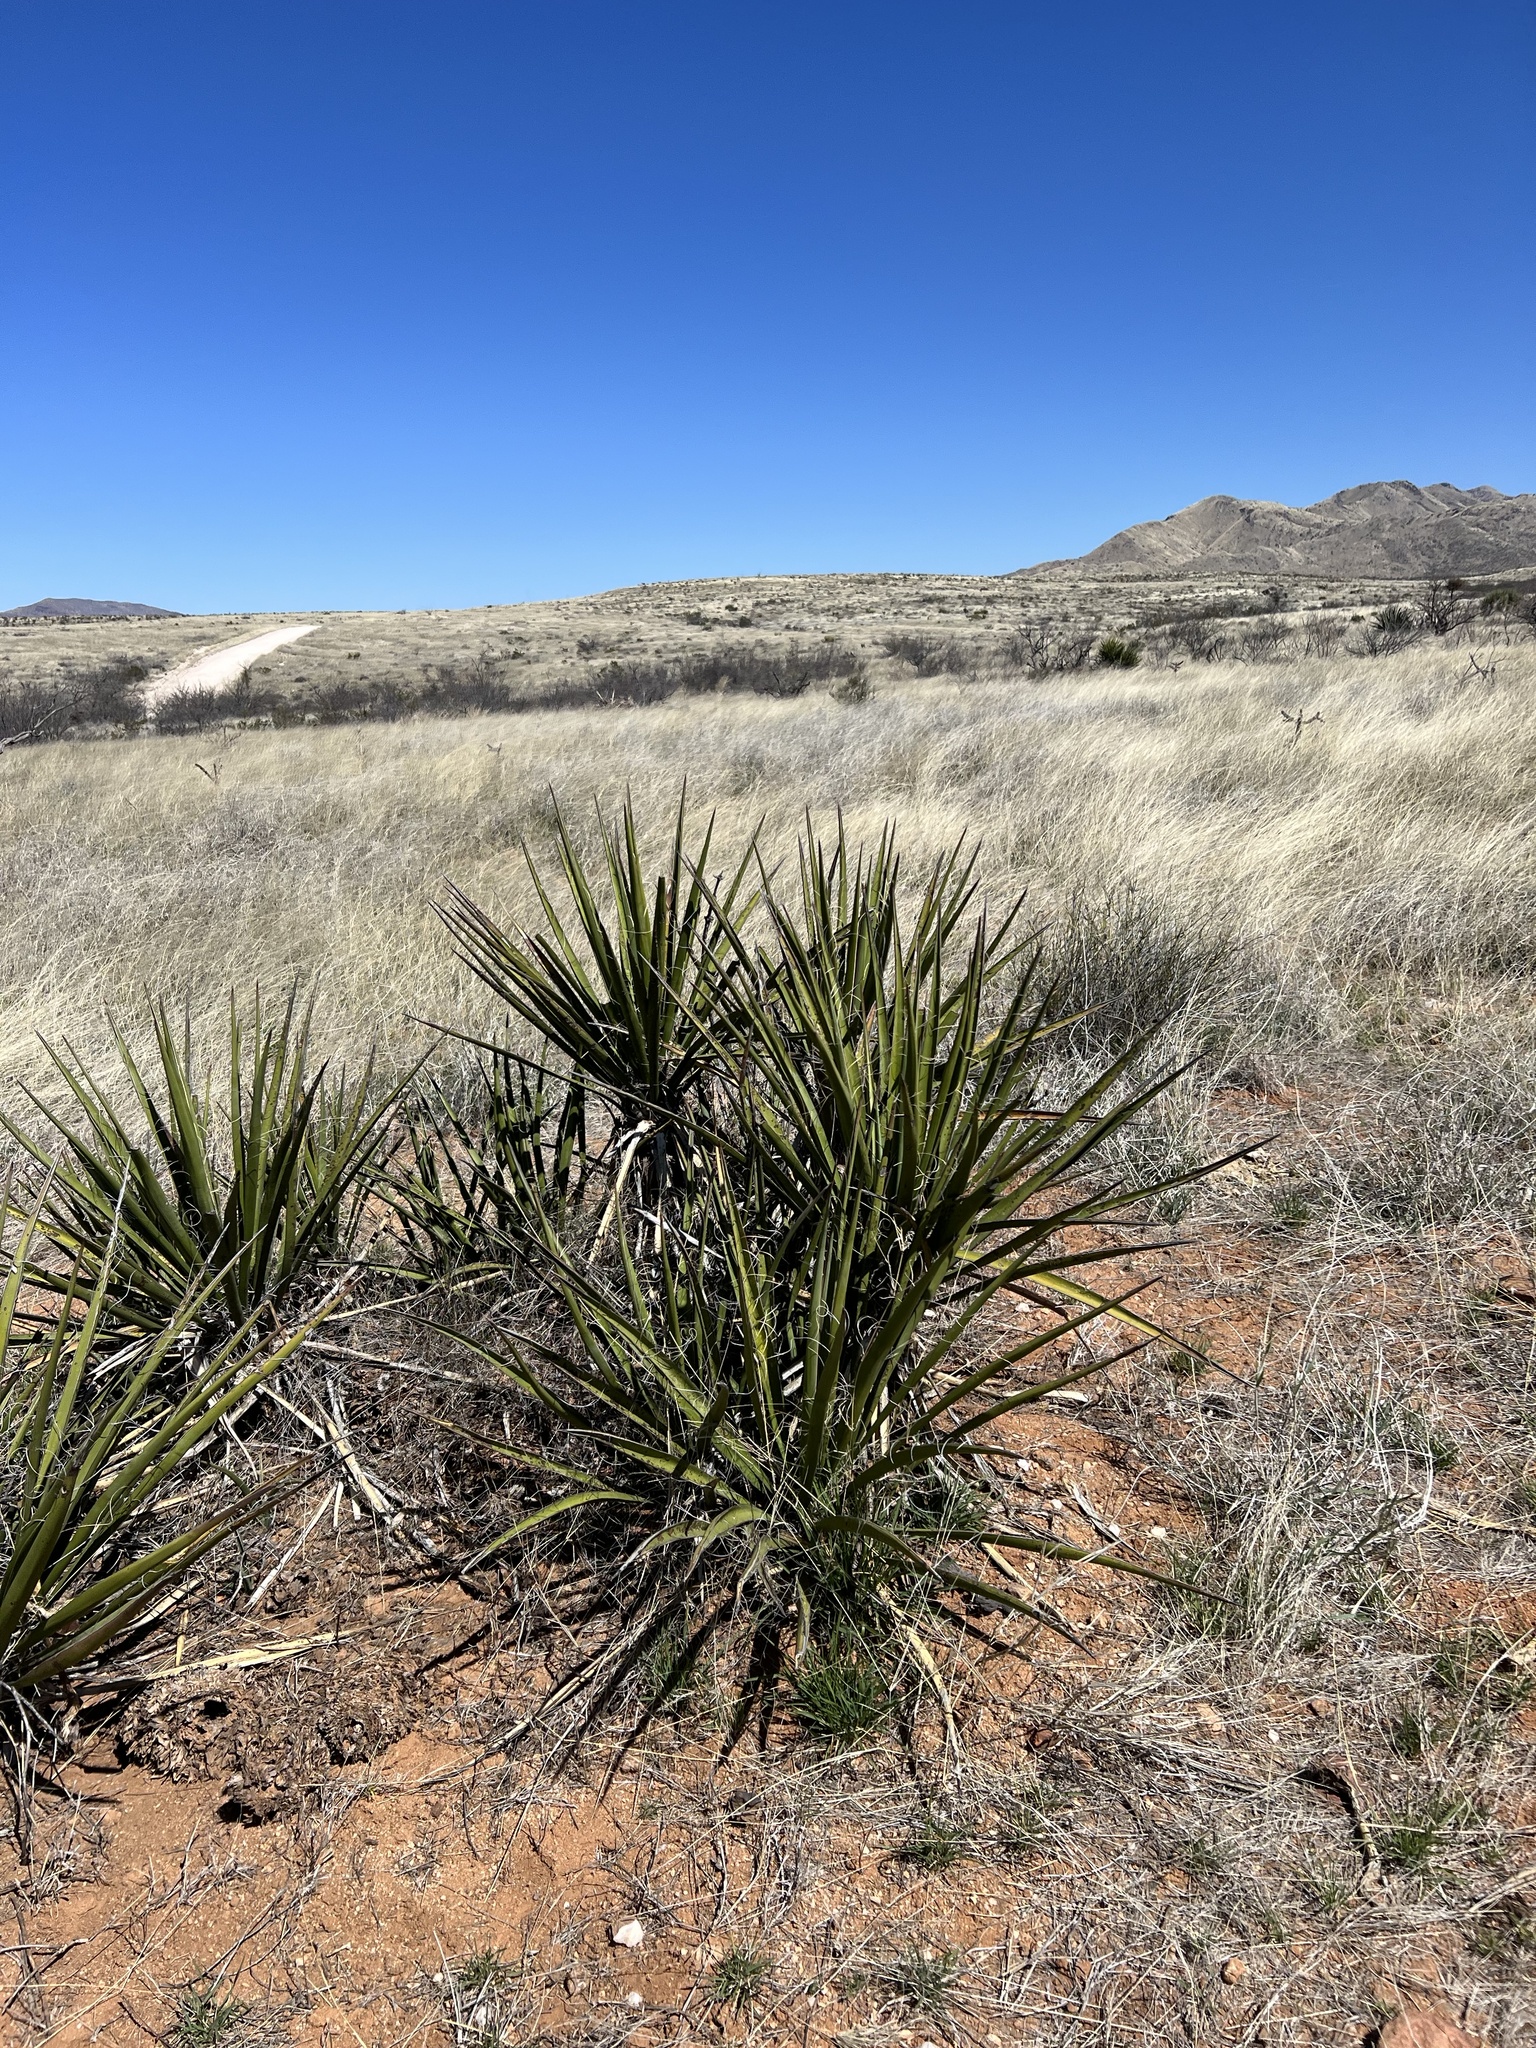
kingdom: Plantae
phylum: Tracheophyta
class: Liliopsida
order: Asparagales
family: Asparagaceae
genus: Yucca
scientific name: Yucca baccata
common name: Banana yucca
